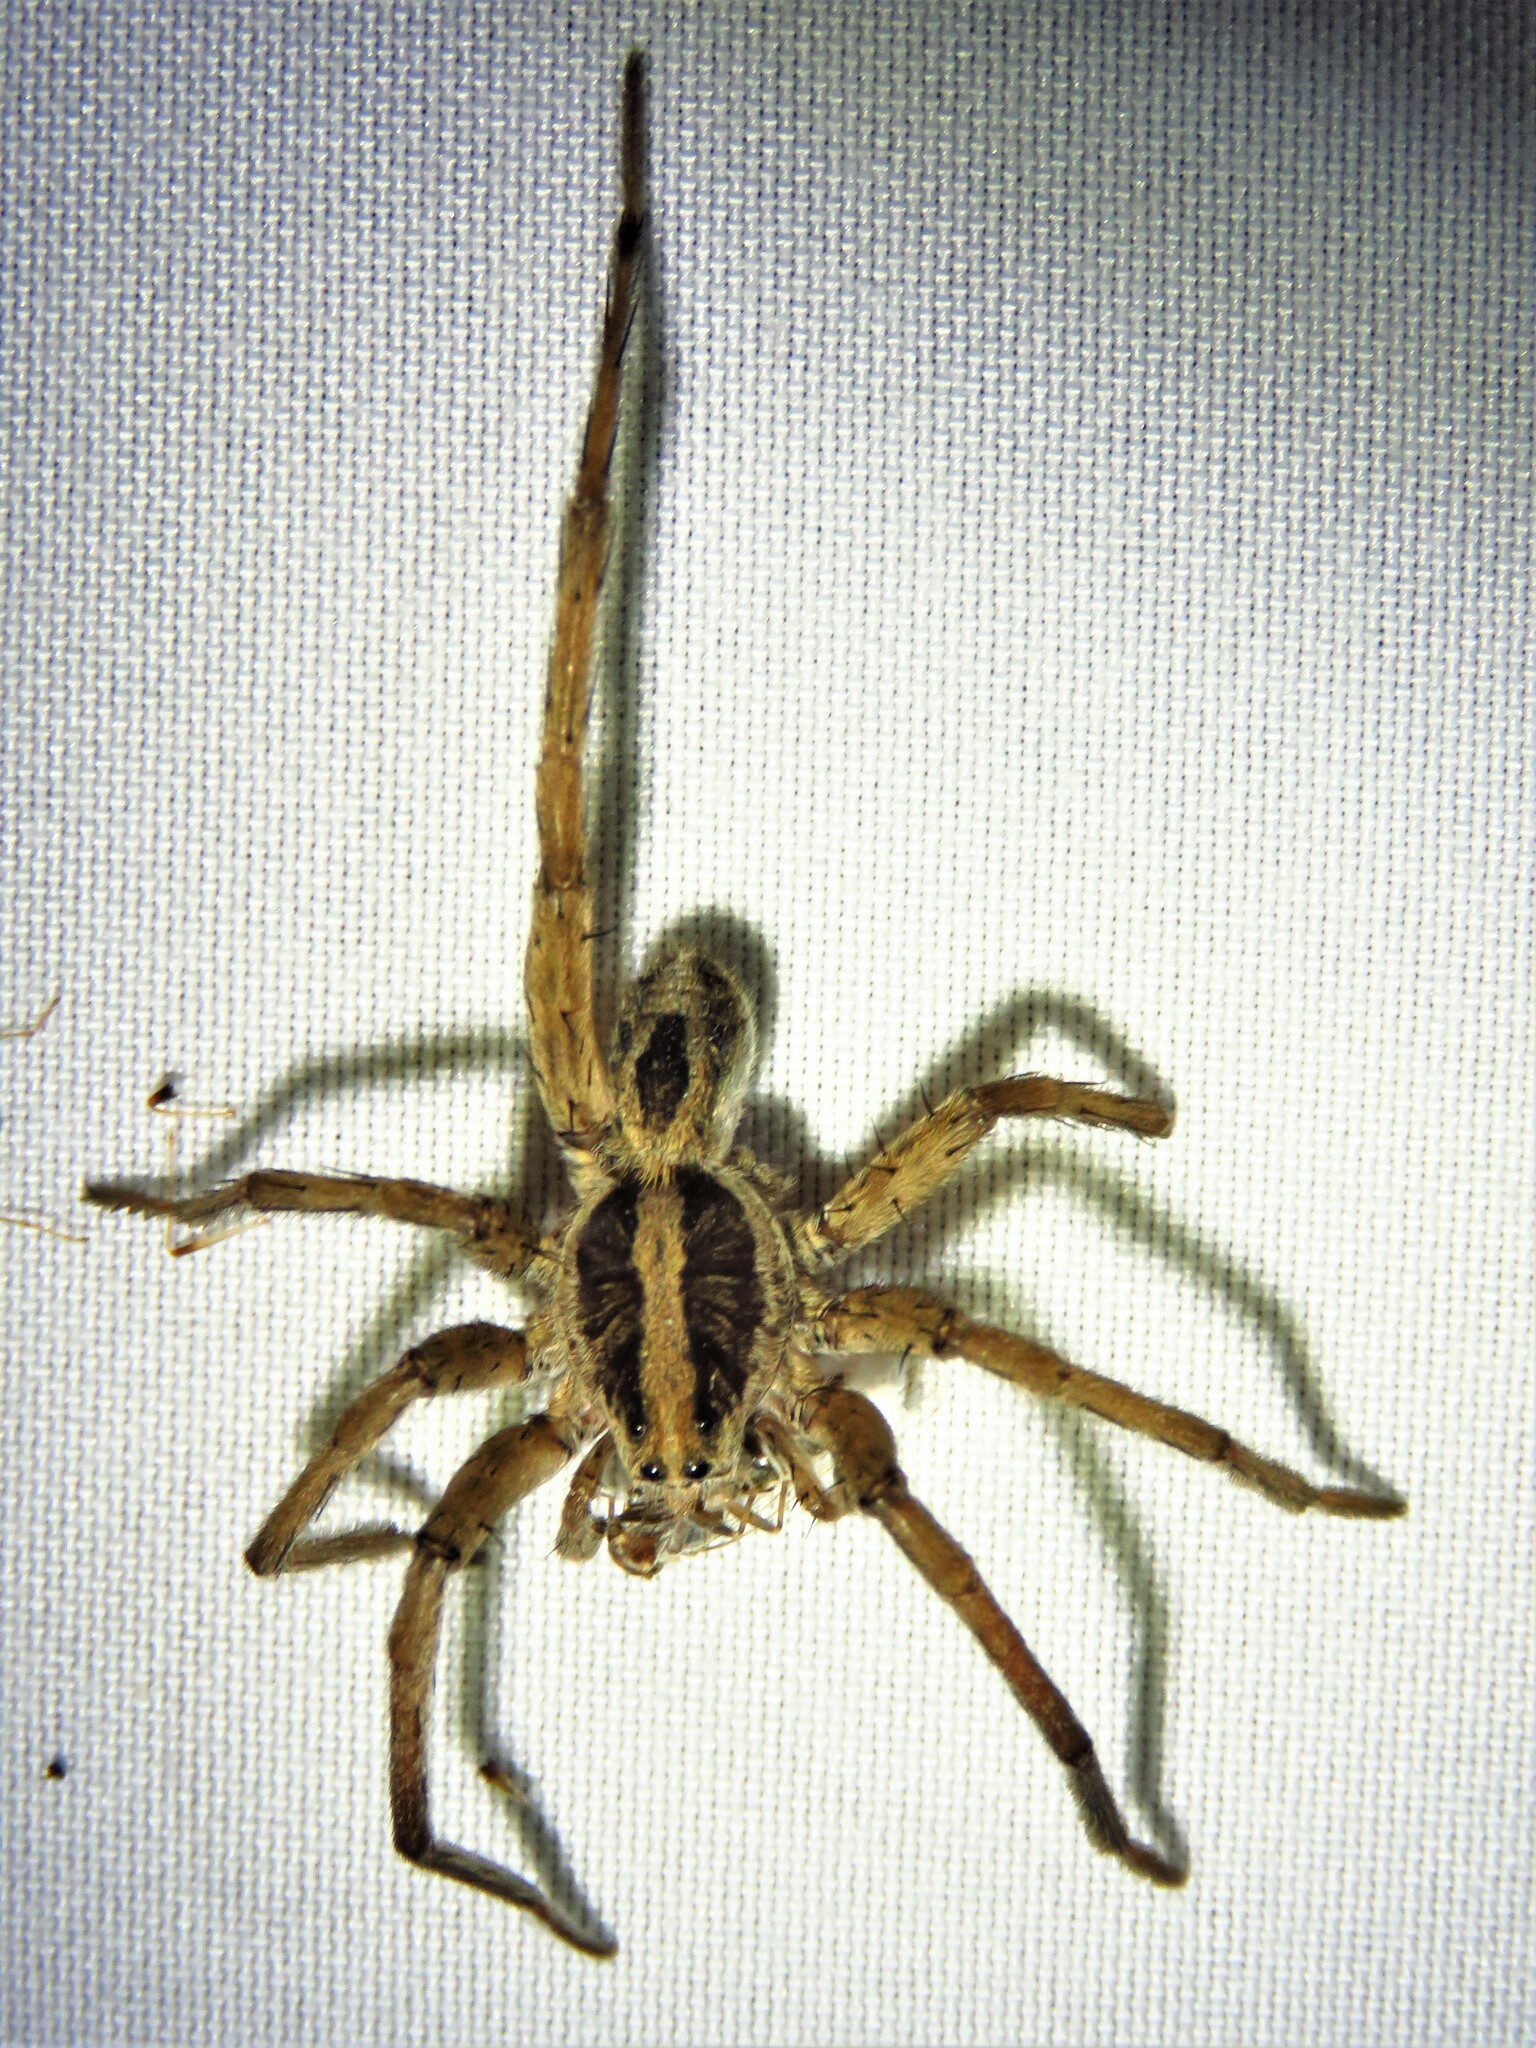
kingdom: Animalia
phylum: Arthropoda
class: Arachnida
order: Araneae
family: Lycosidae
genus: Schizocosa
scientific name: Schizocosa avida
